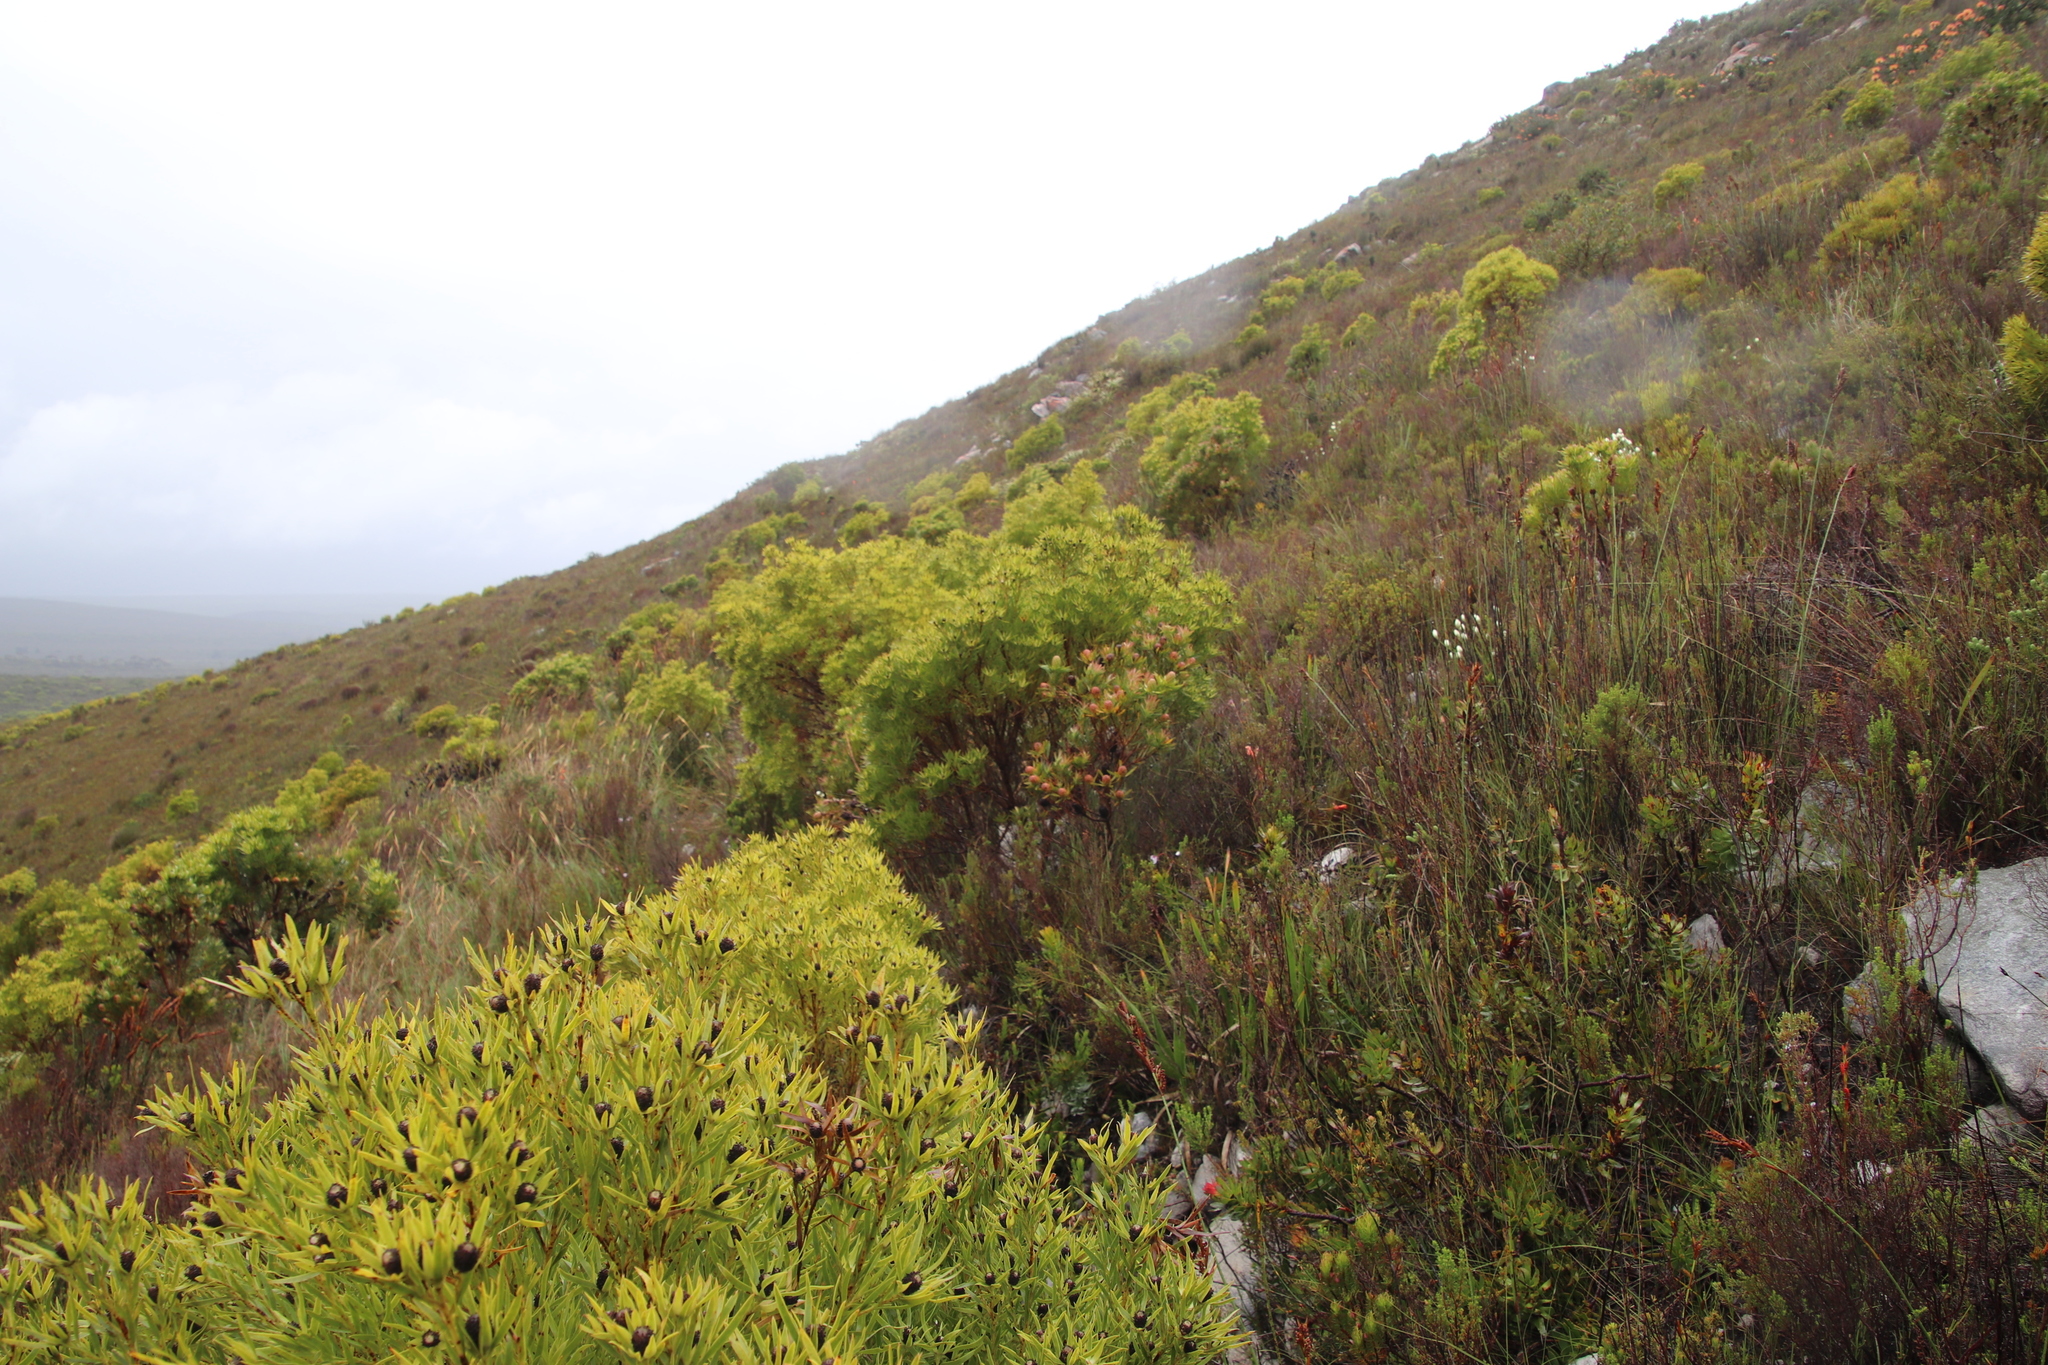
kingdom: Plantae
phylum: Tracheophyta
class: Magnoliopsida
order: Proteales
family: Proteaceae
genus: Leucadendron
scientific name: Leucadendron xanthoconus
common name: Sickle-leaf conebush
